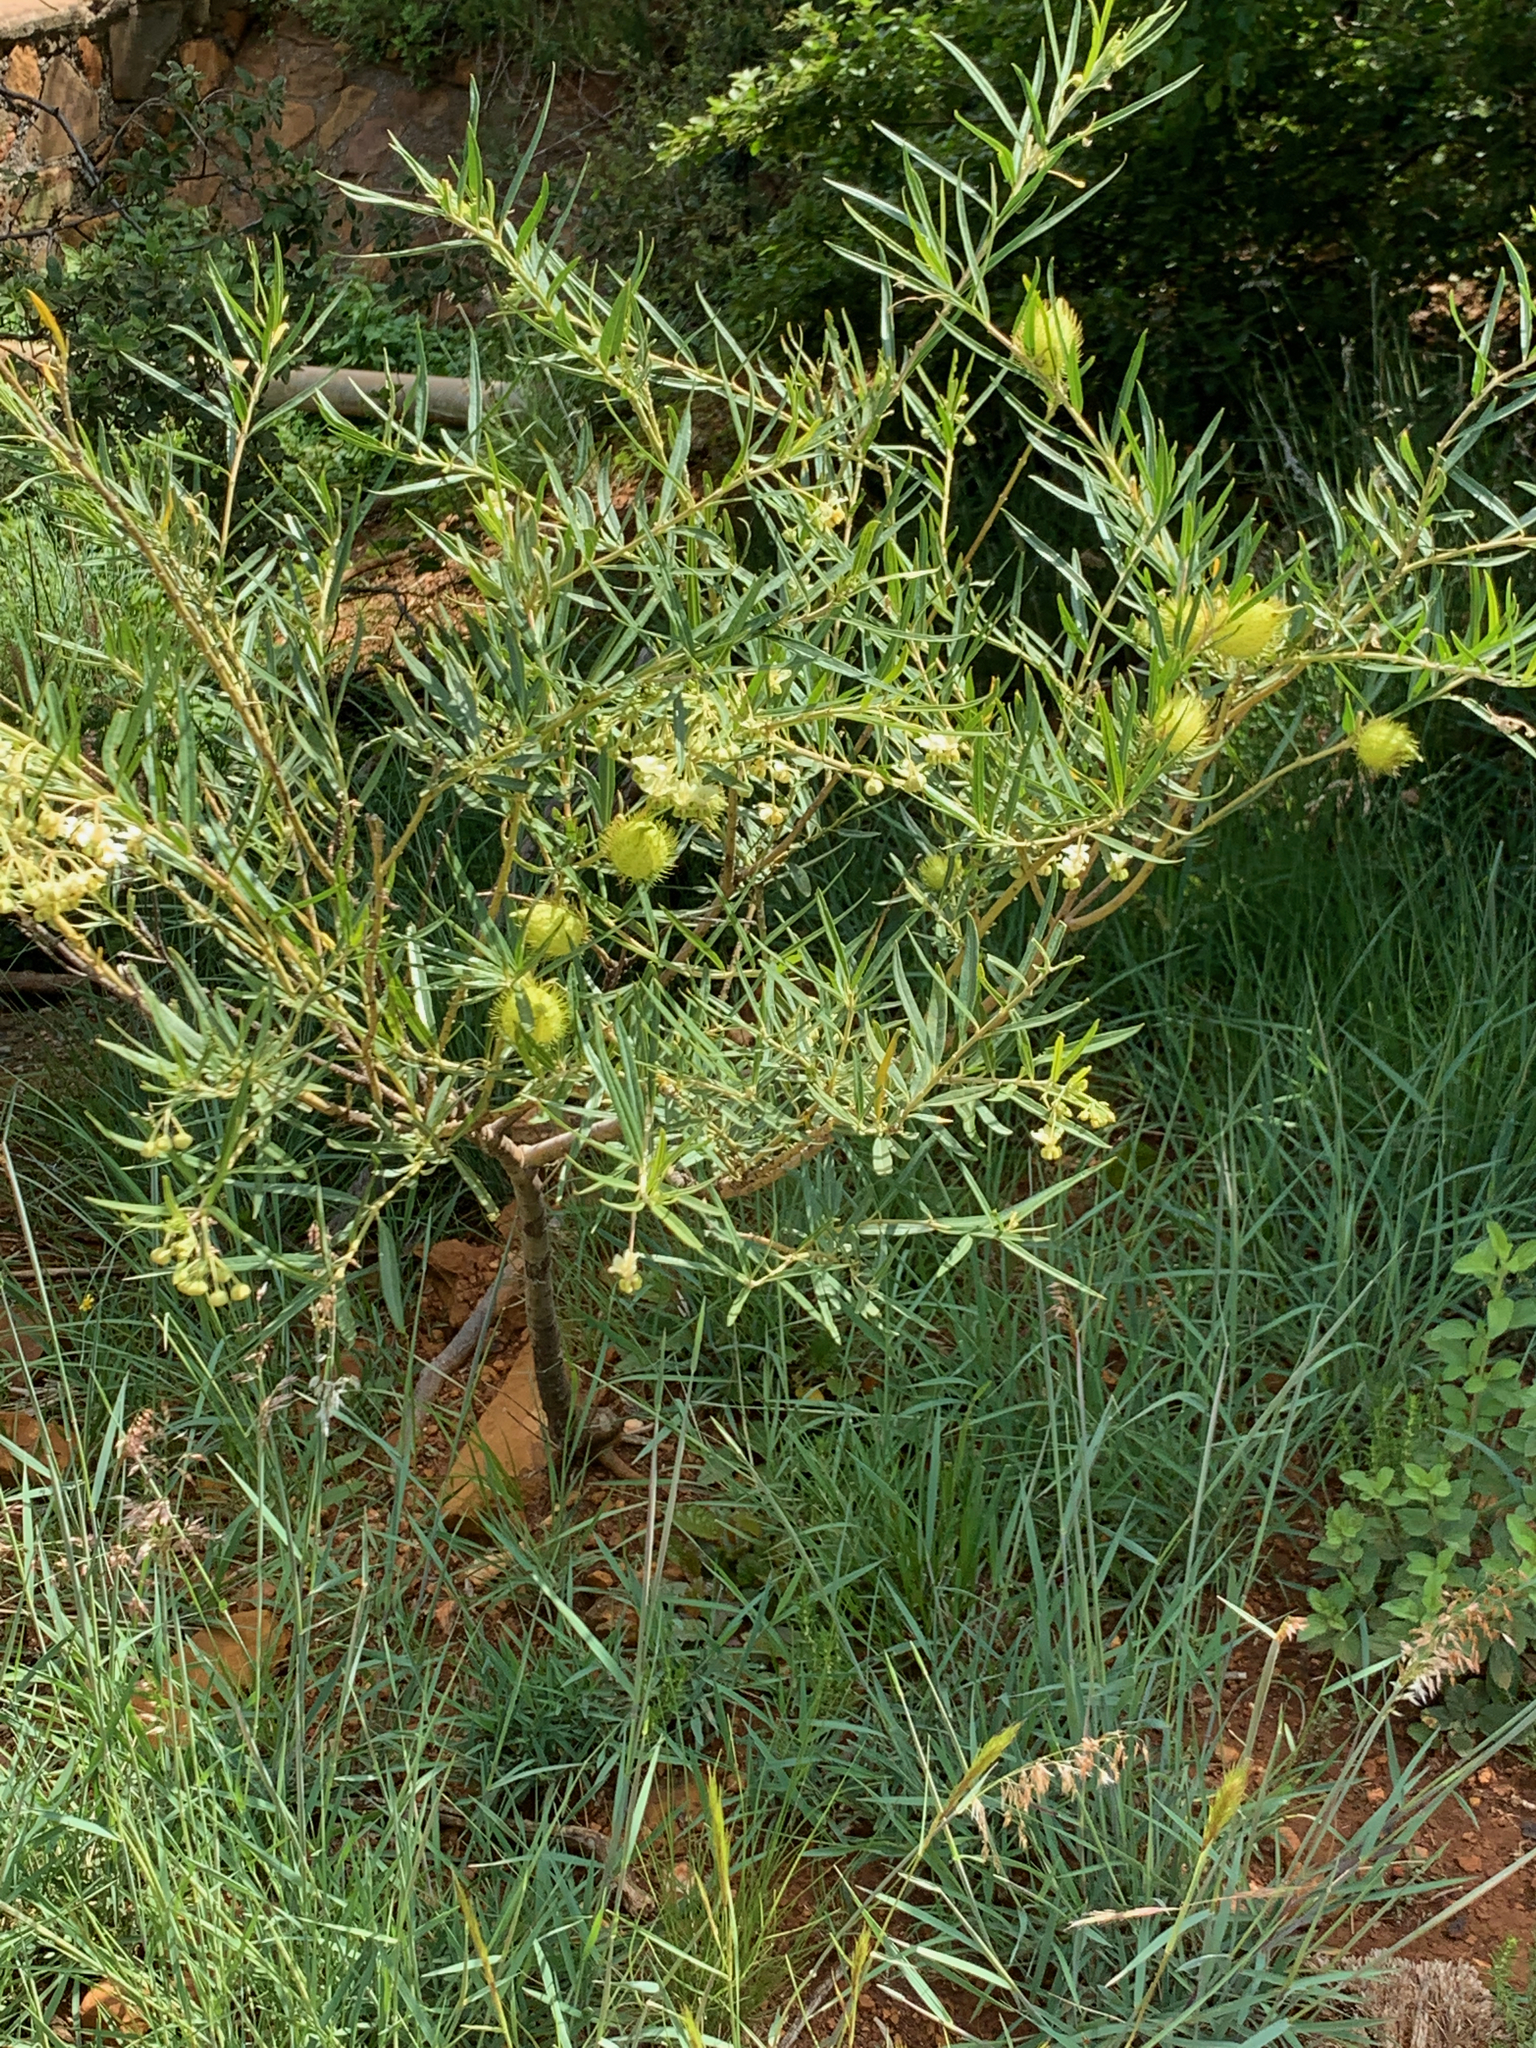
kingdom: Plantae
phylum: Tracheophyta
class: Magnoliopsida
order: Gentianales
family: Apocynaceae
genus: Gomphocarpus
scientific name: Gomphocarpus fruticosus
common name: Milkweed
